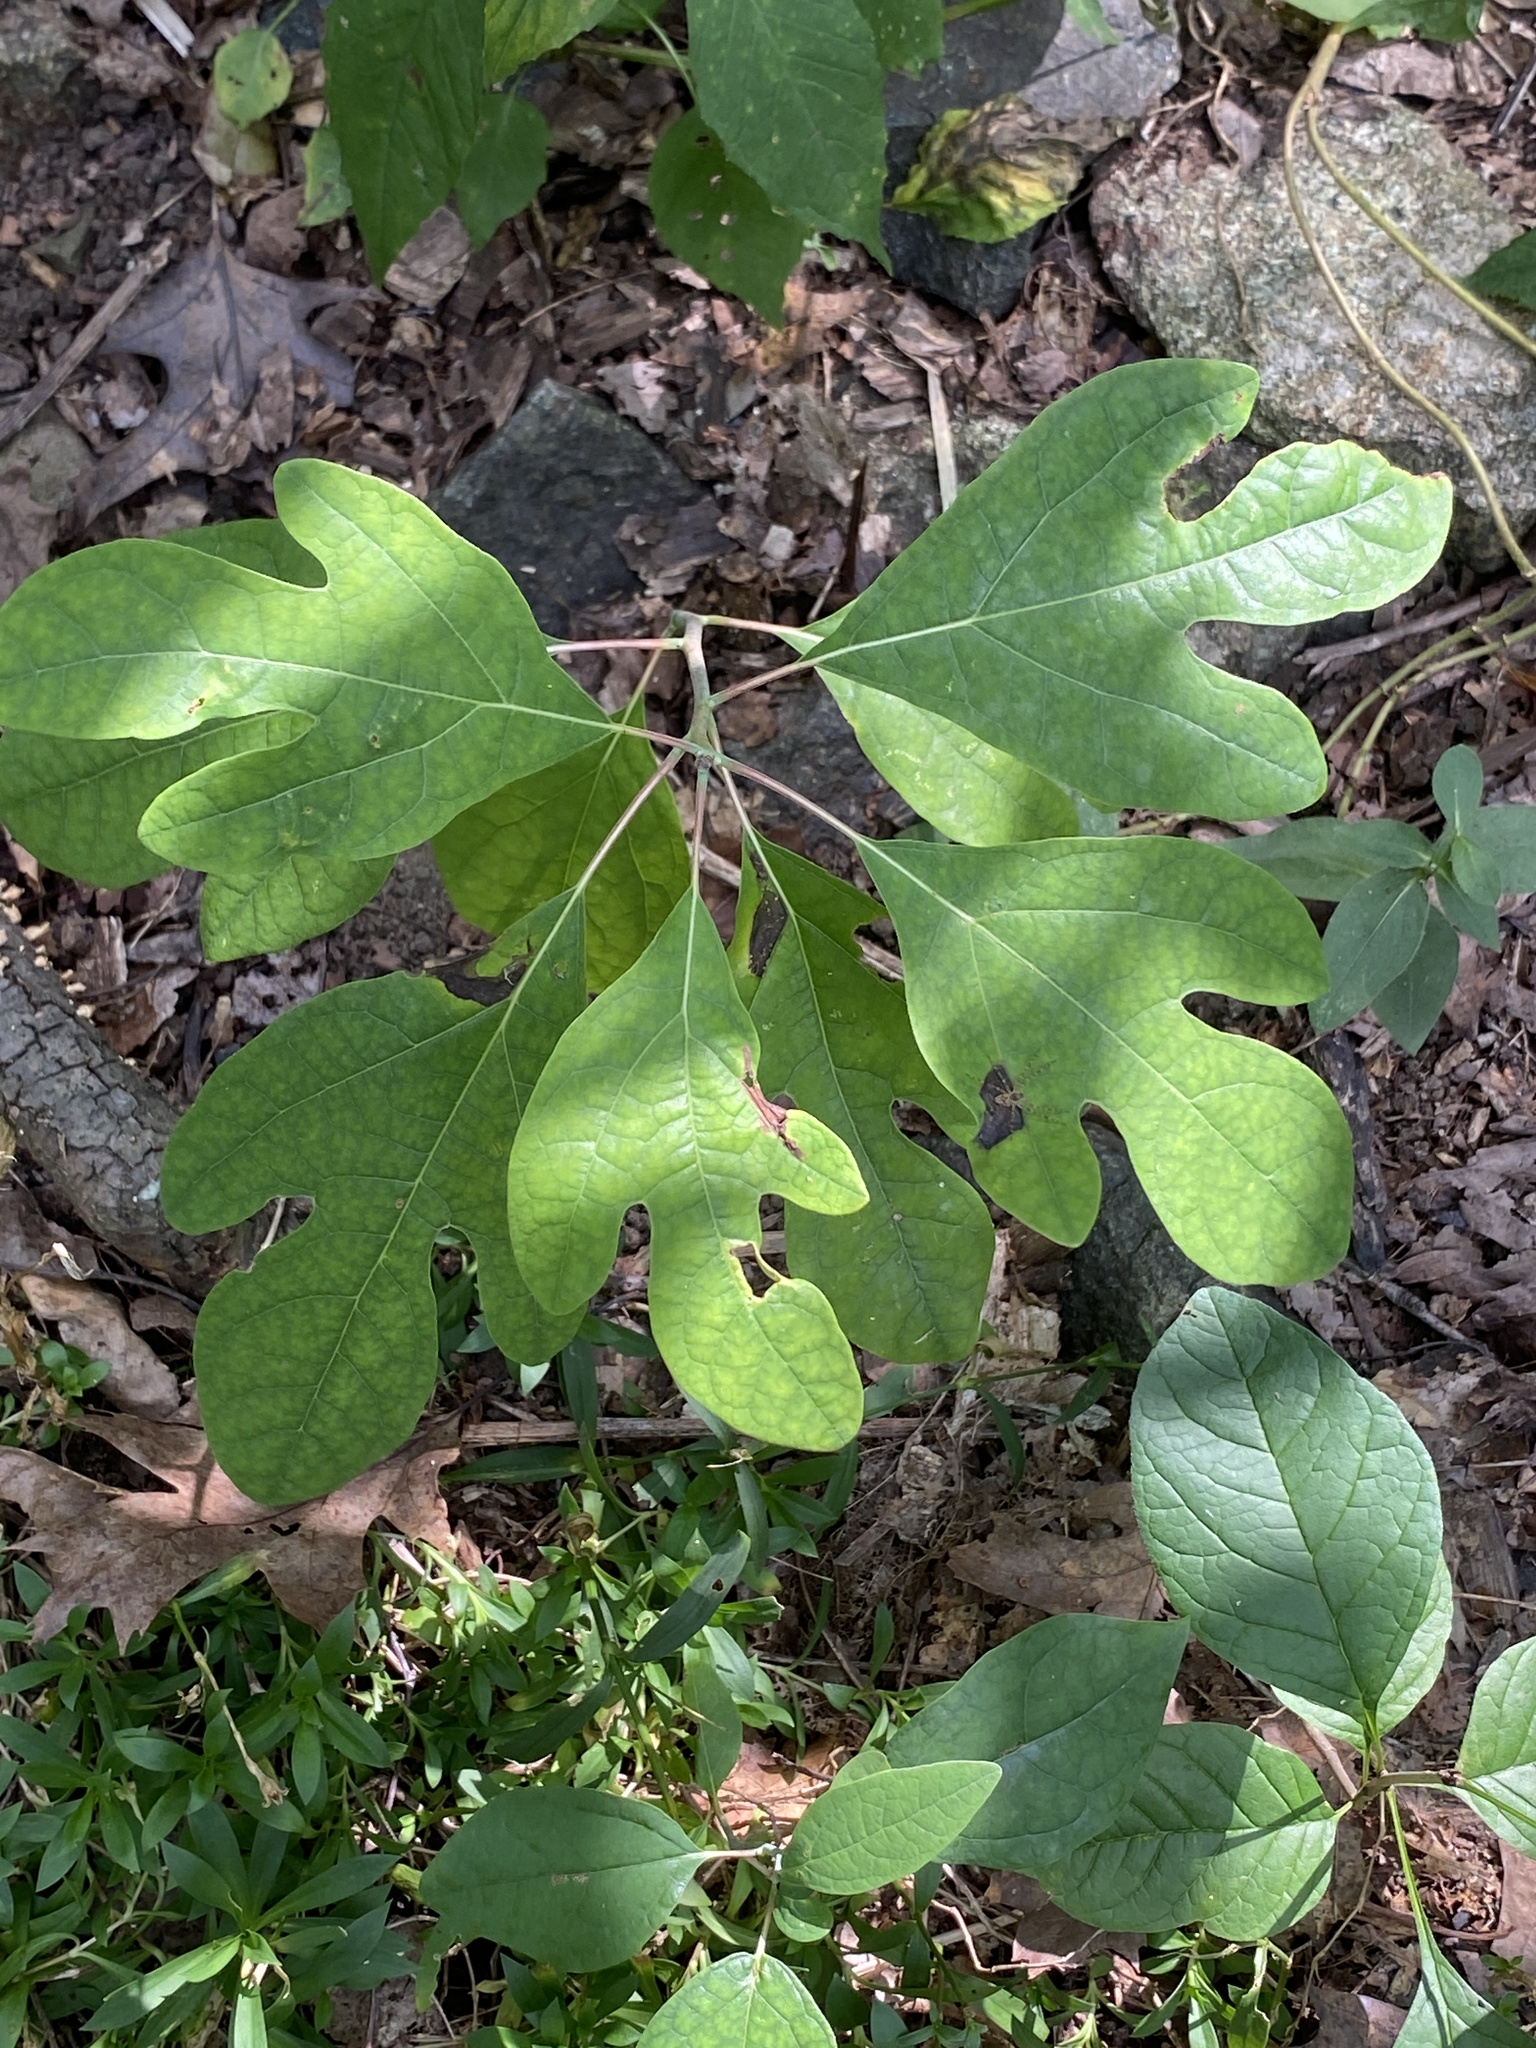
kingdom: Plantae
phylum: Tracheophyta
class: Magnoliopsida
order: Laurales
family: Lauraceae
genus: Sassafras
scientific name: Sassafras albidum
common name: Sassafras
